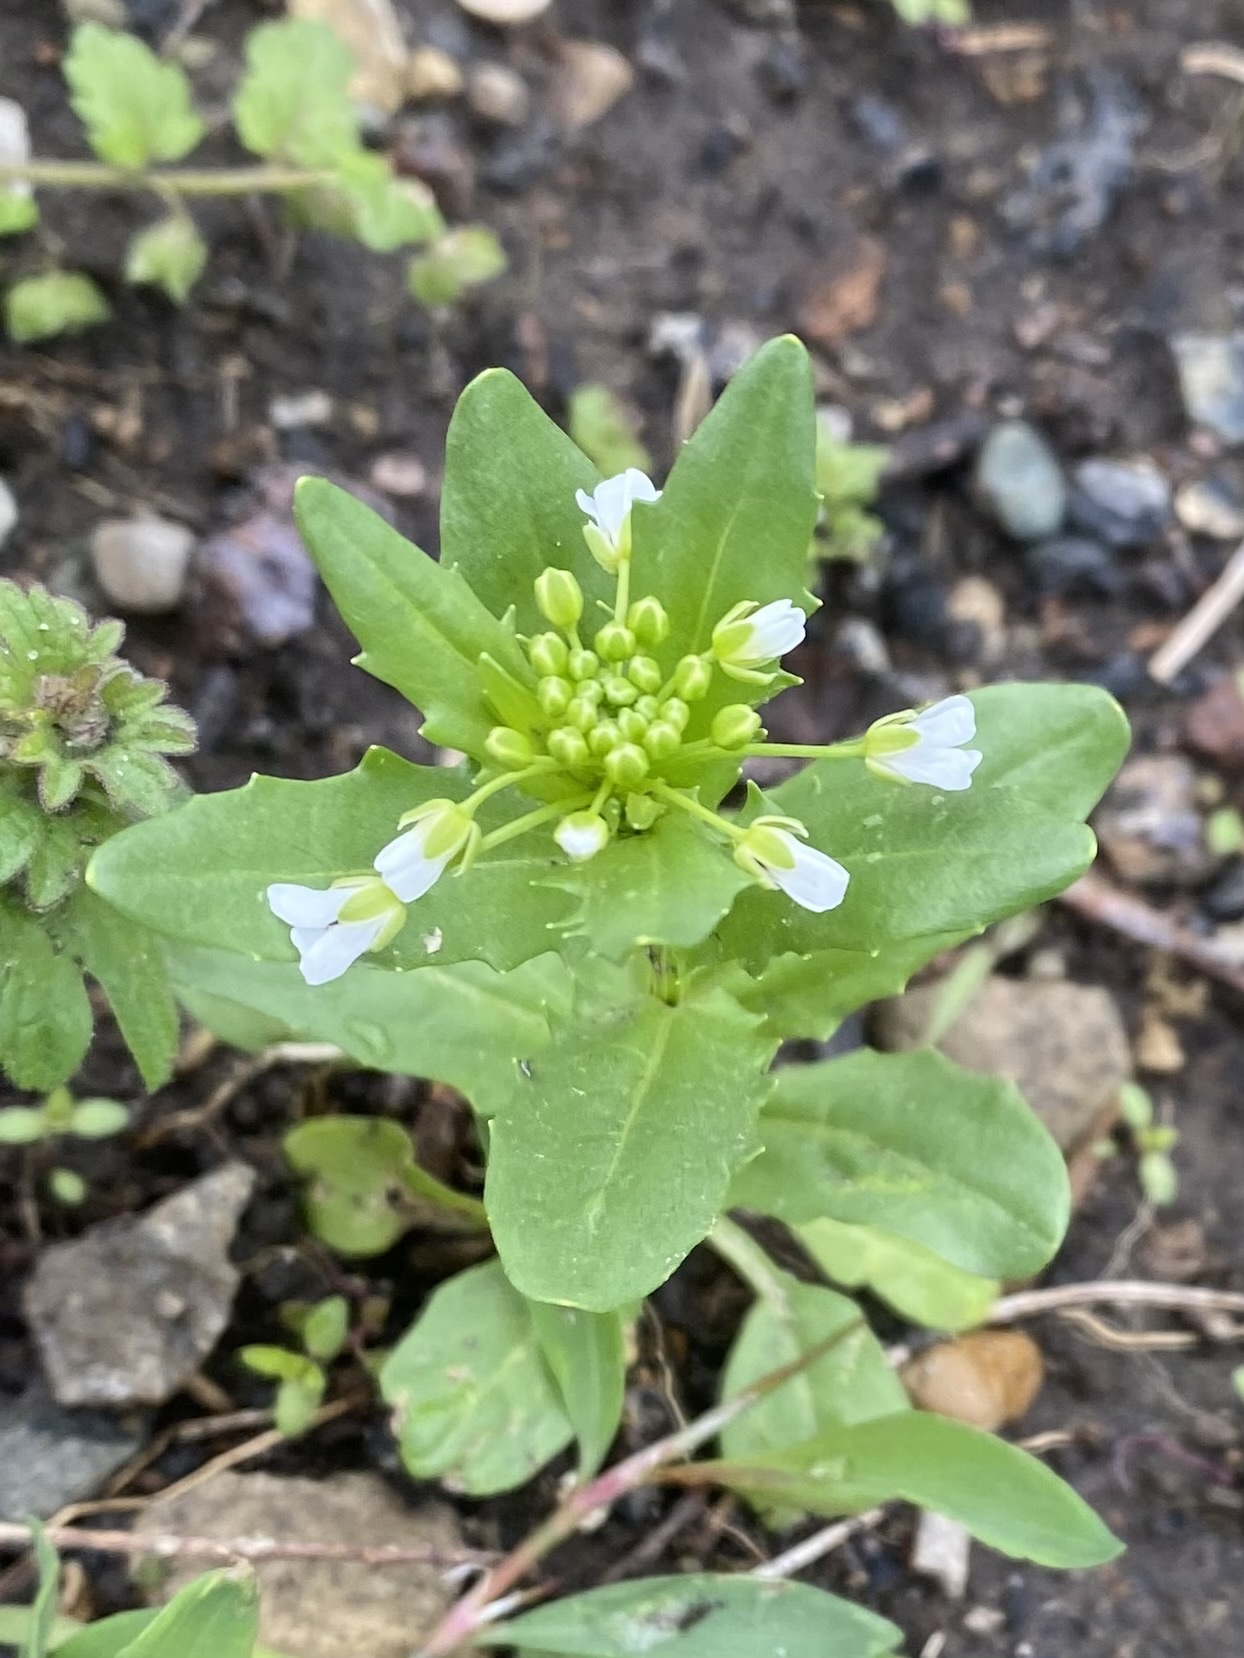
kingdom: Plantae
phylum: Tracheophyta
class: Magnoliopsida
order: Brassicales
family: Brassicaceae
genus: Thlaspi
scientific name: Thlaspi arvense
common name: Field pennycress
